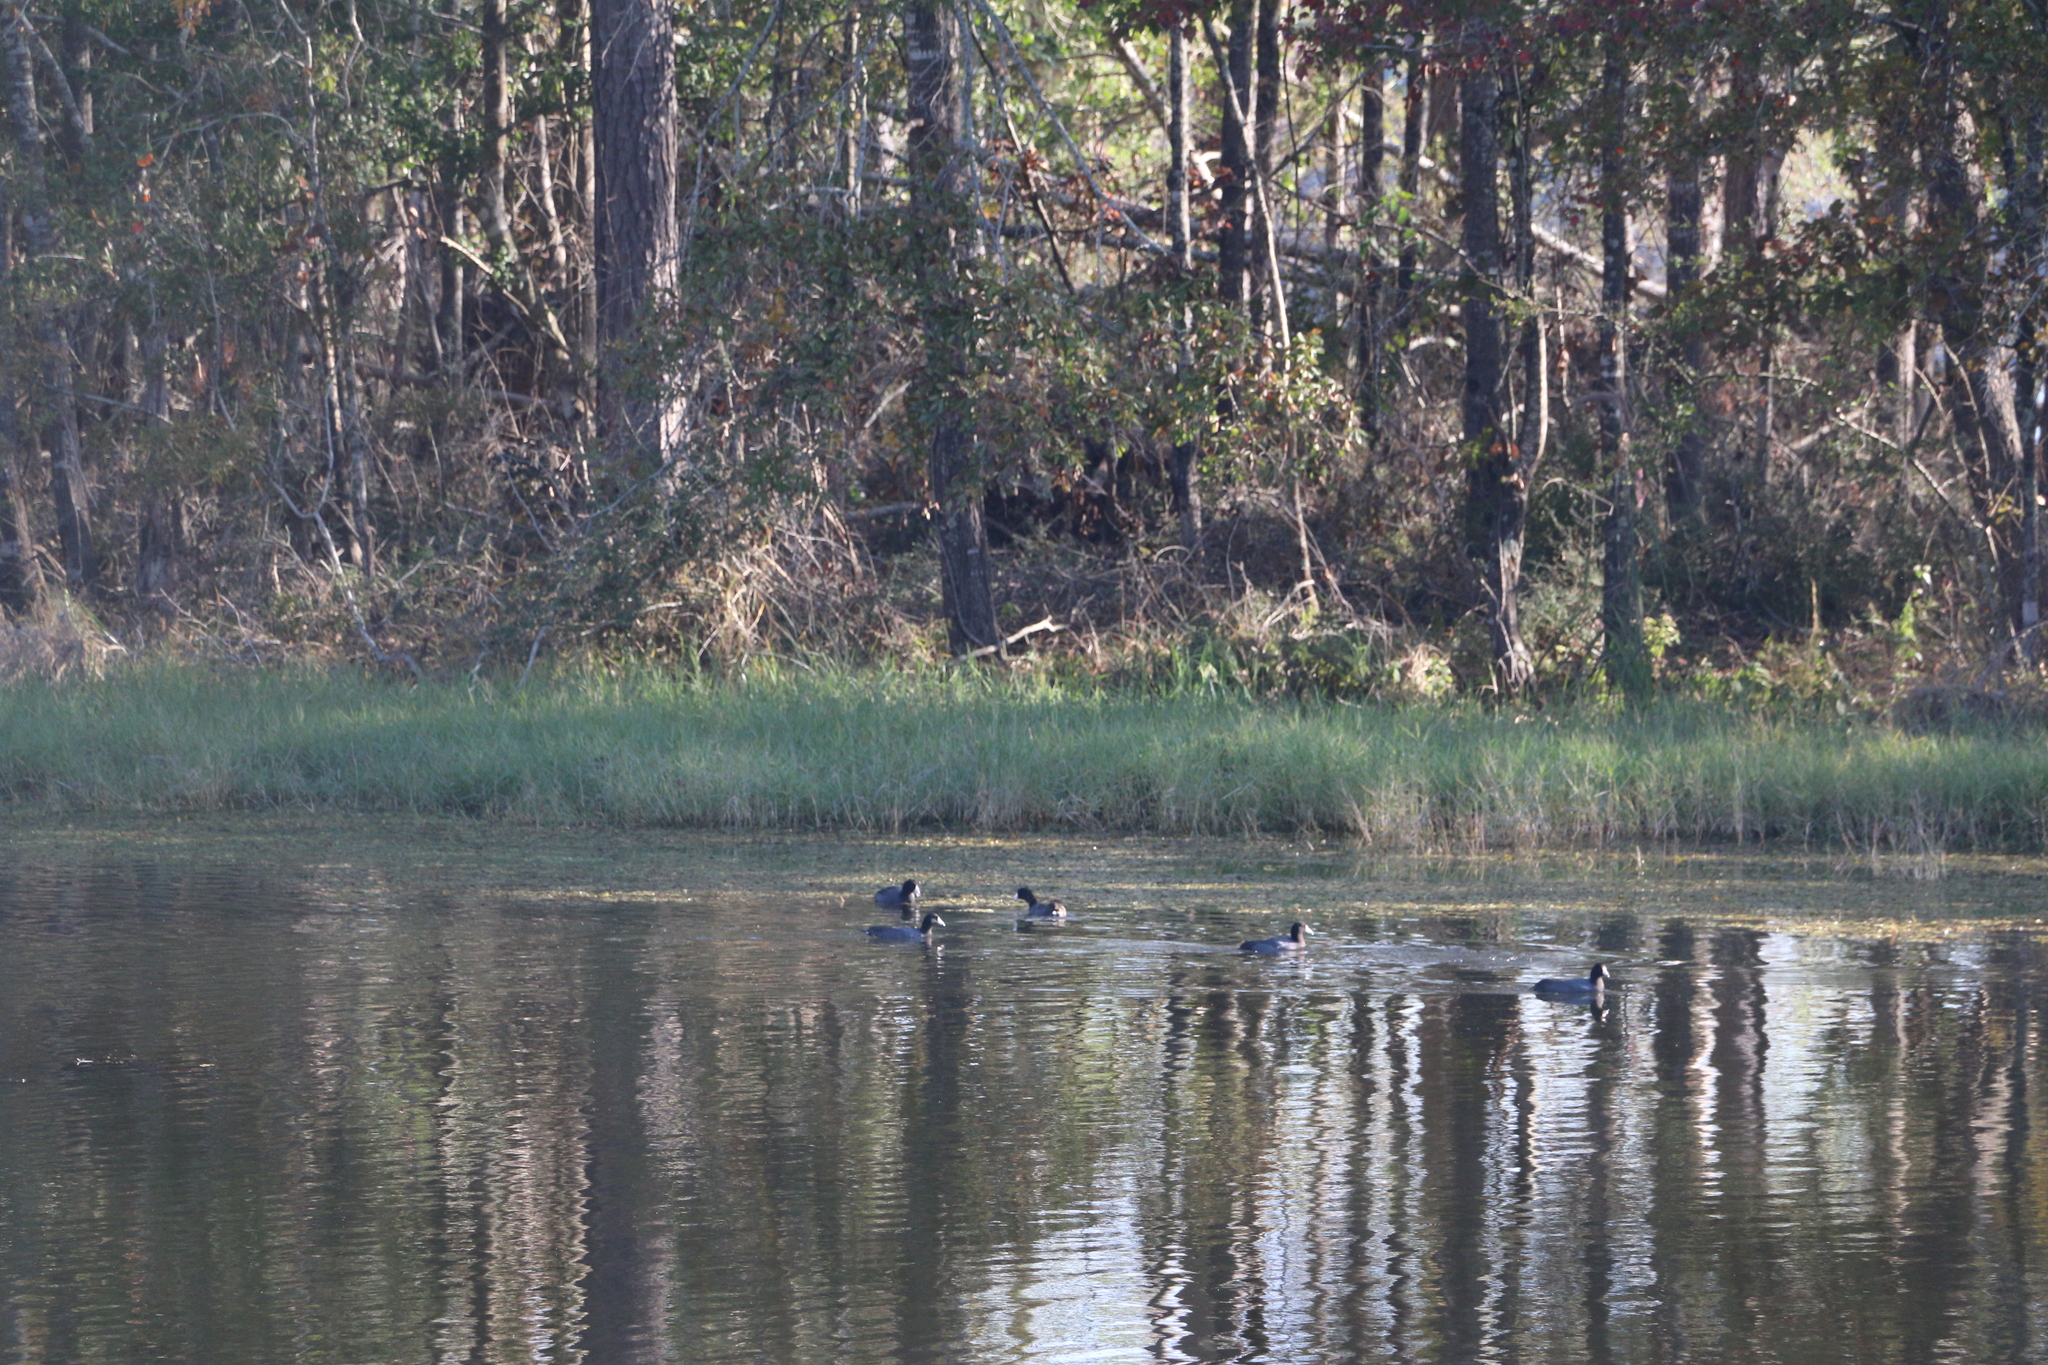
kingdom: Animalia
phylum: Chordata
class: Aves
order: Gruiformes
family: Rallidae
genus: Fulica
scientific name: Fulica americana
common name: American coot
